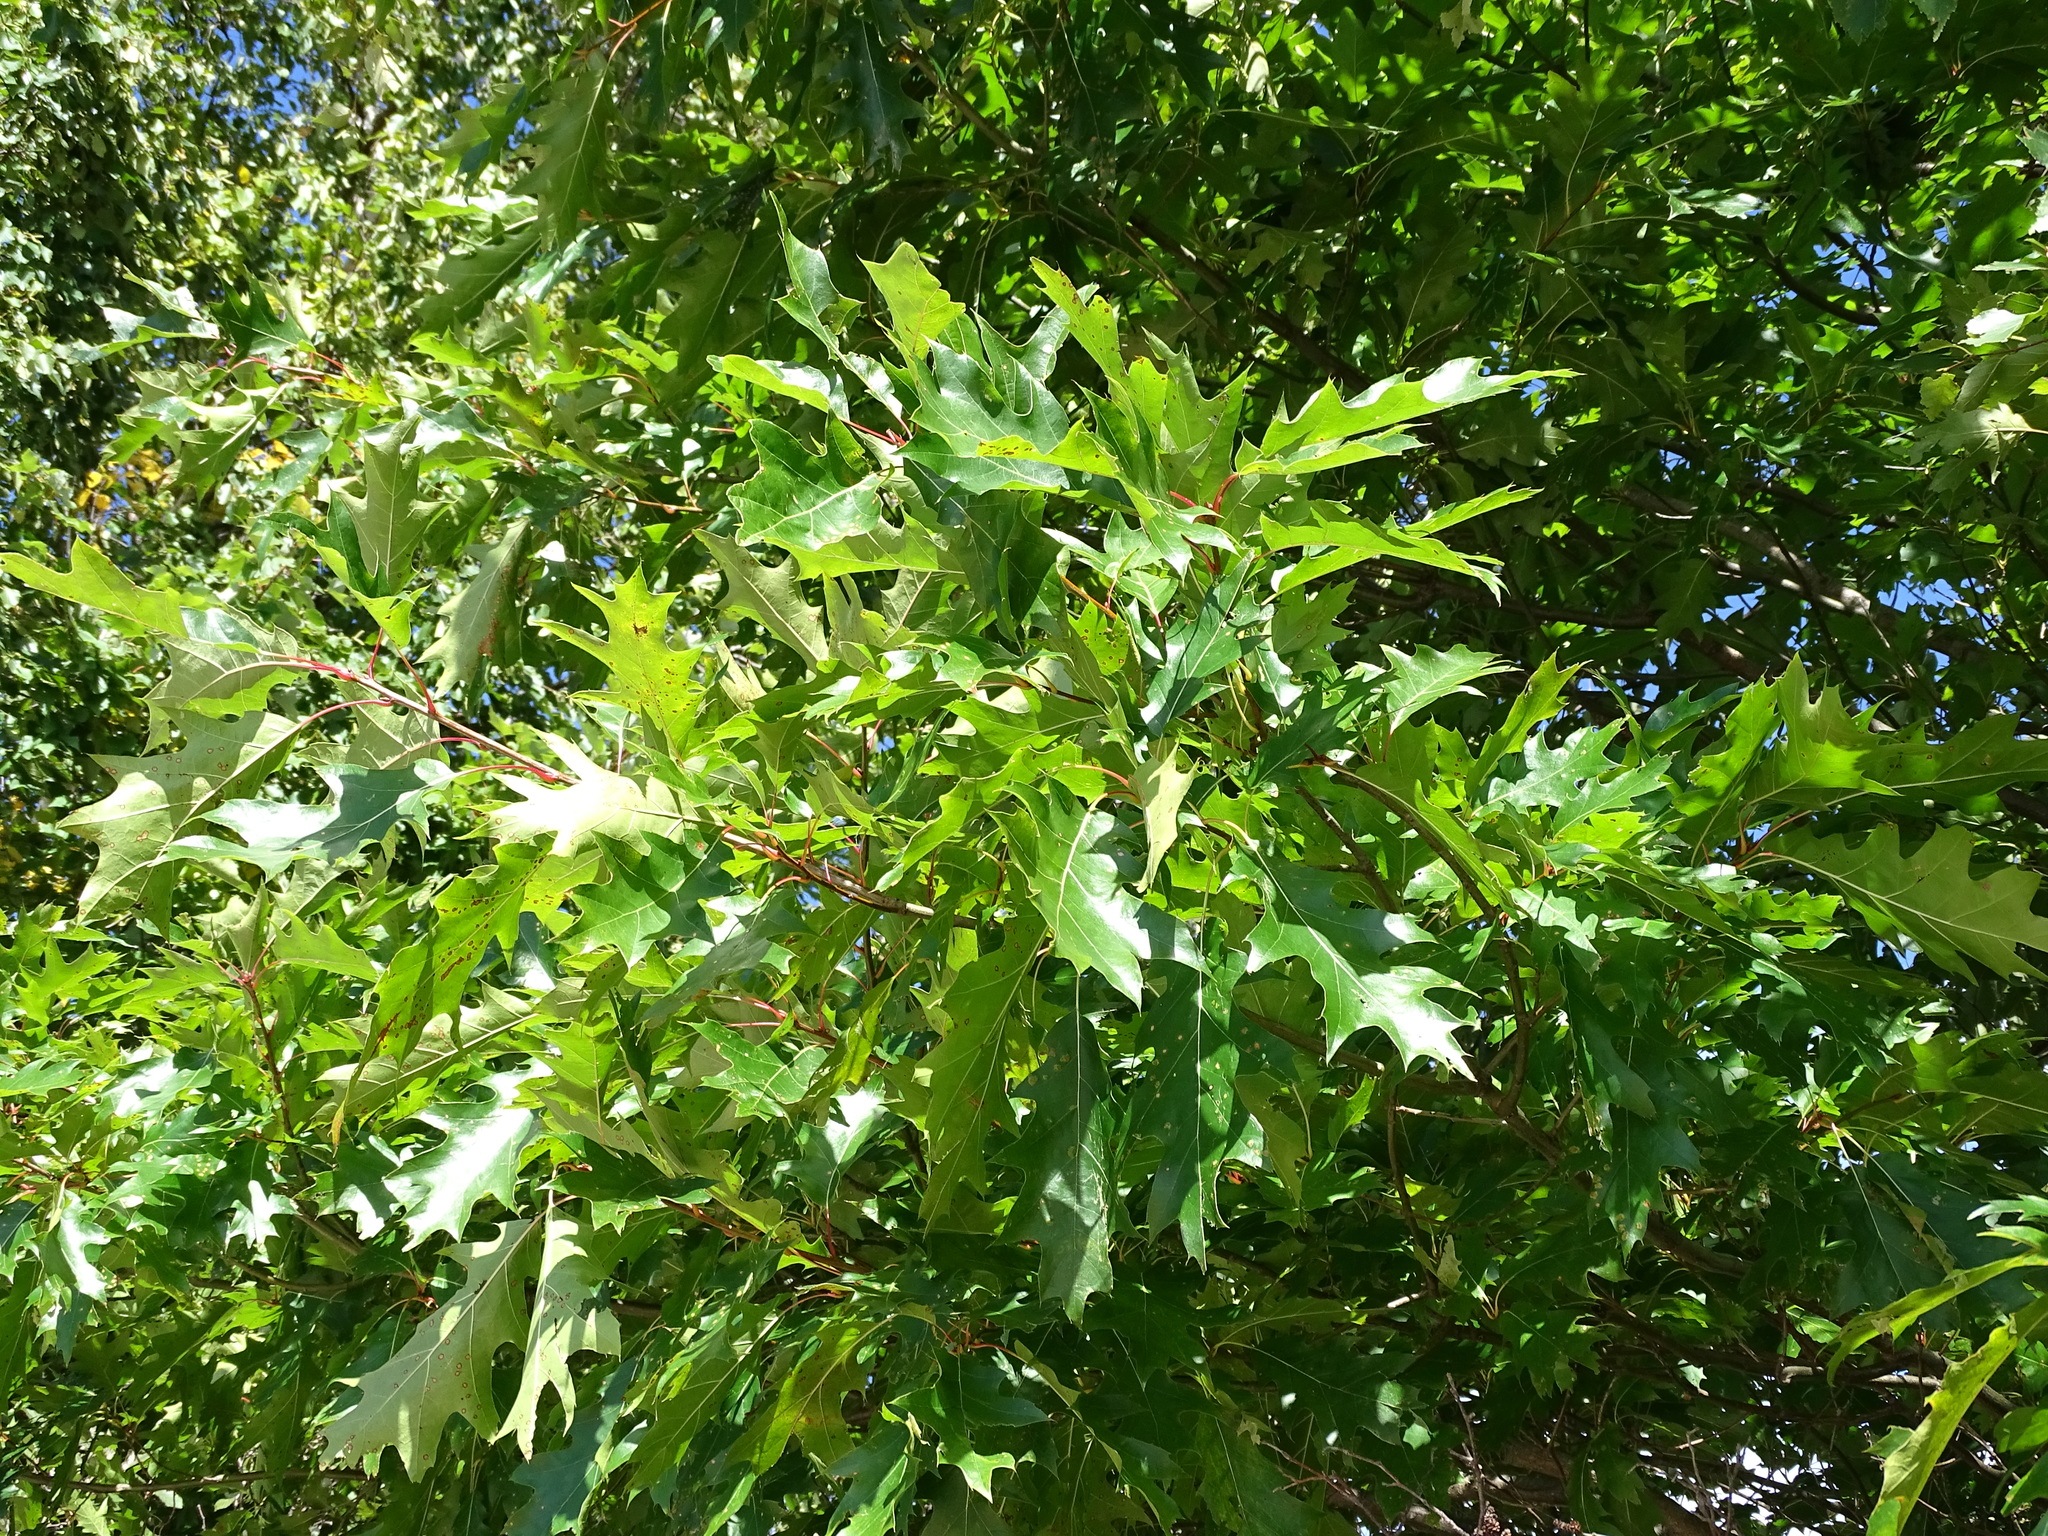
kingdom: Plantae
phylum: Tracheophyta
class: Magnoliopsida
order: Fagales
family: Fagaceae
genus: Quercus
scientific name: Quercus rubra
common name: Red oak
